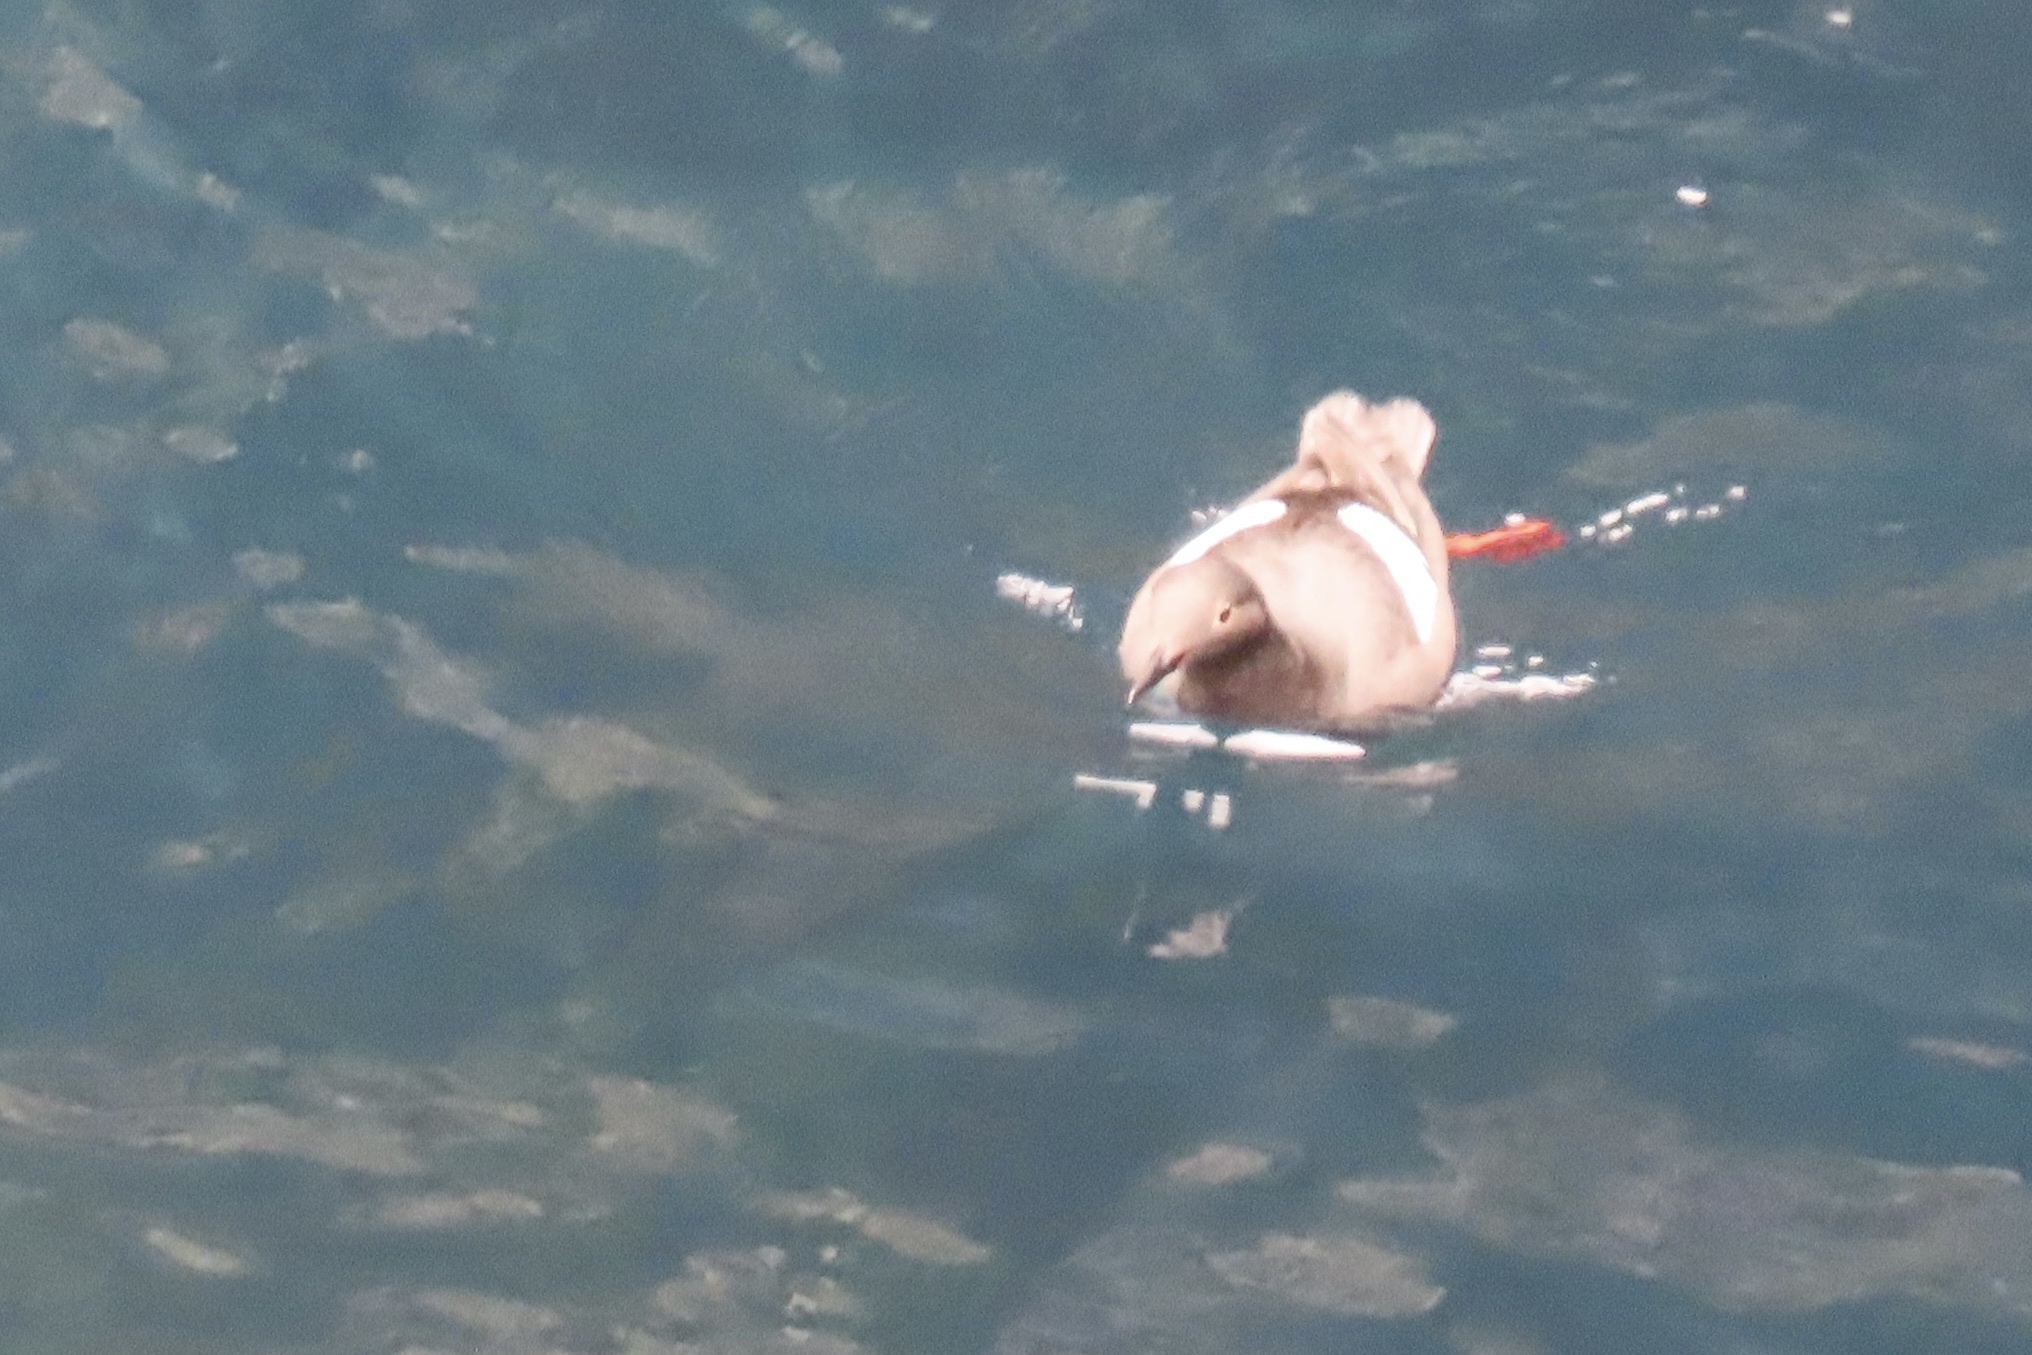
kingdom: Animalia
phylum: Chordata
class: Aves
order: Charadriiformes
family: Alcidae
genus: Cepphus
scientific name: Cepphus columba
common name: Pigeon guillemot
